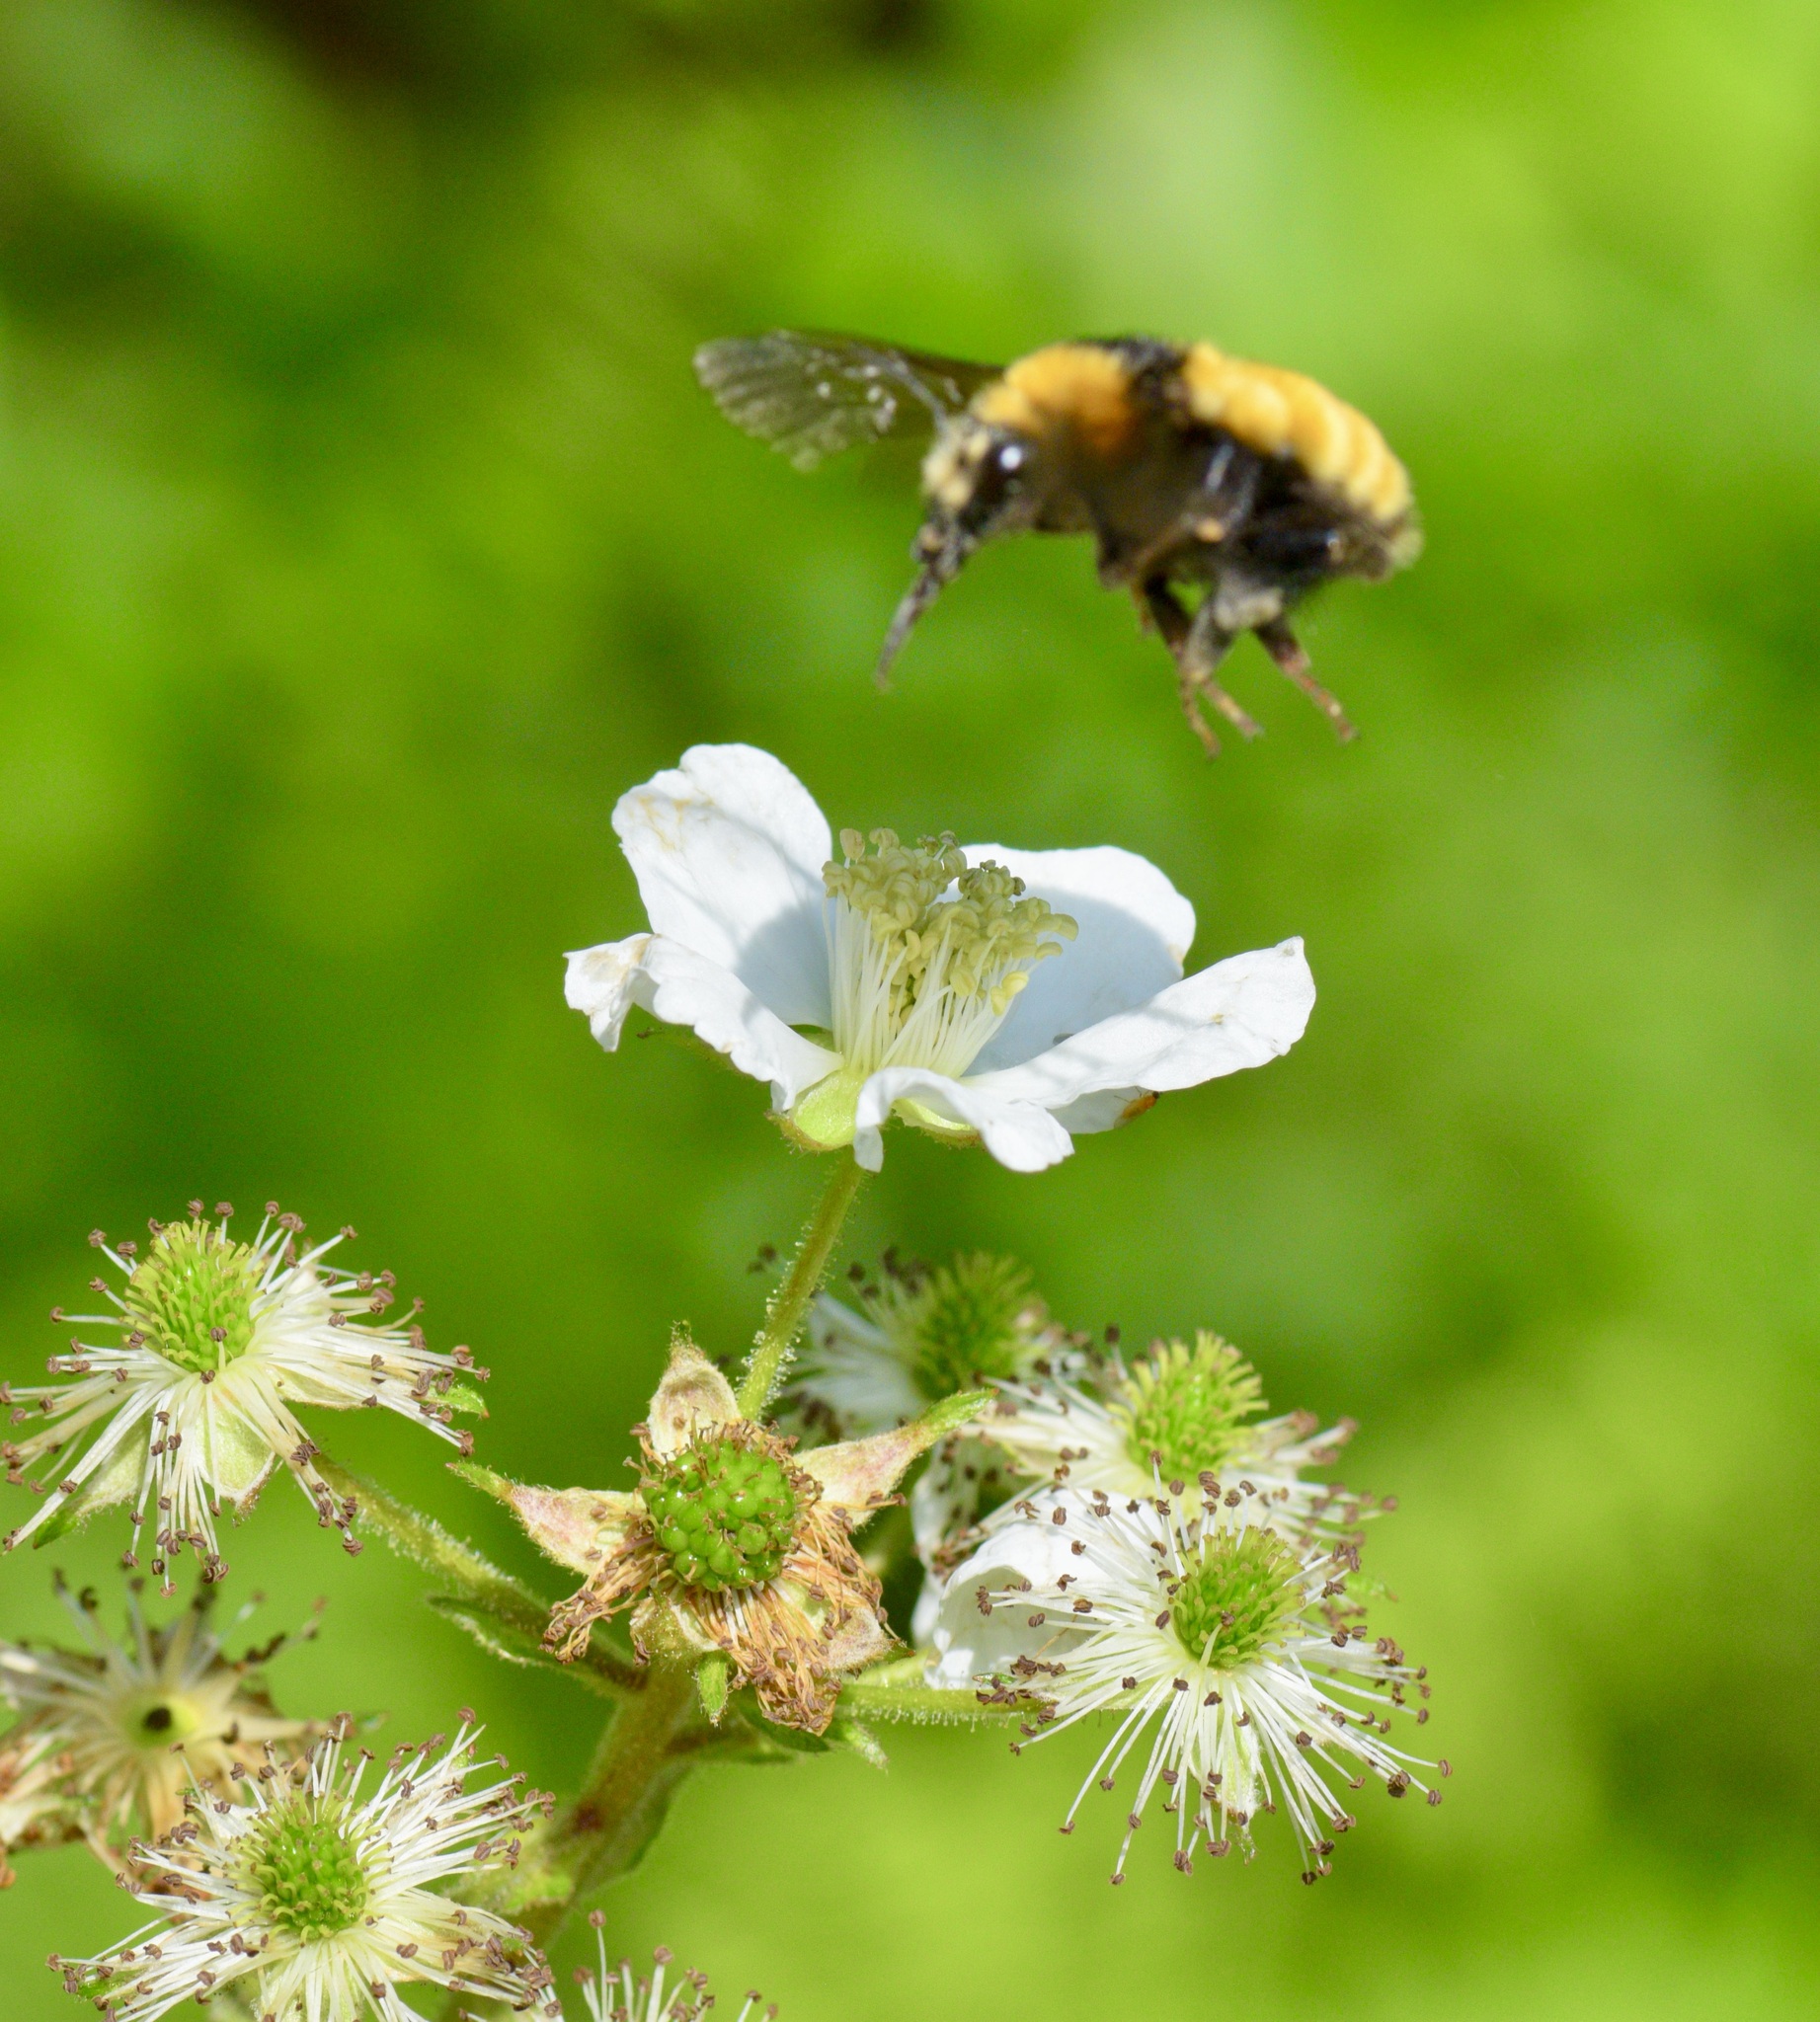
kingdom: Animalia
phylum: Arthropoda
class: Insecta
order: Hymenoptera
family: Apidae
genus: Bombus
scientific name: Bombus borealis
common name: Northern amber bumble bee
